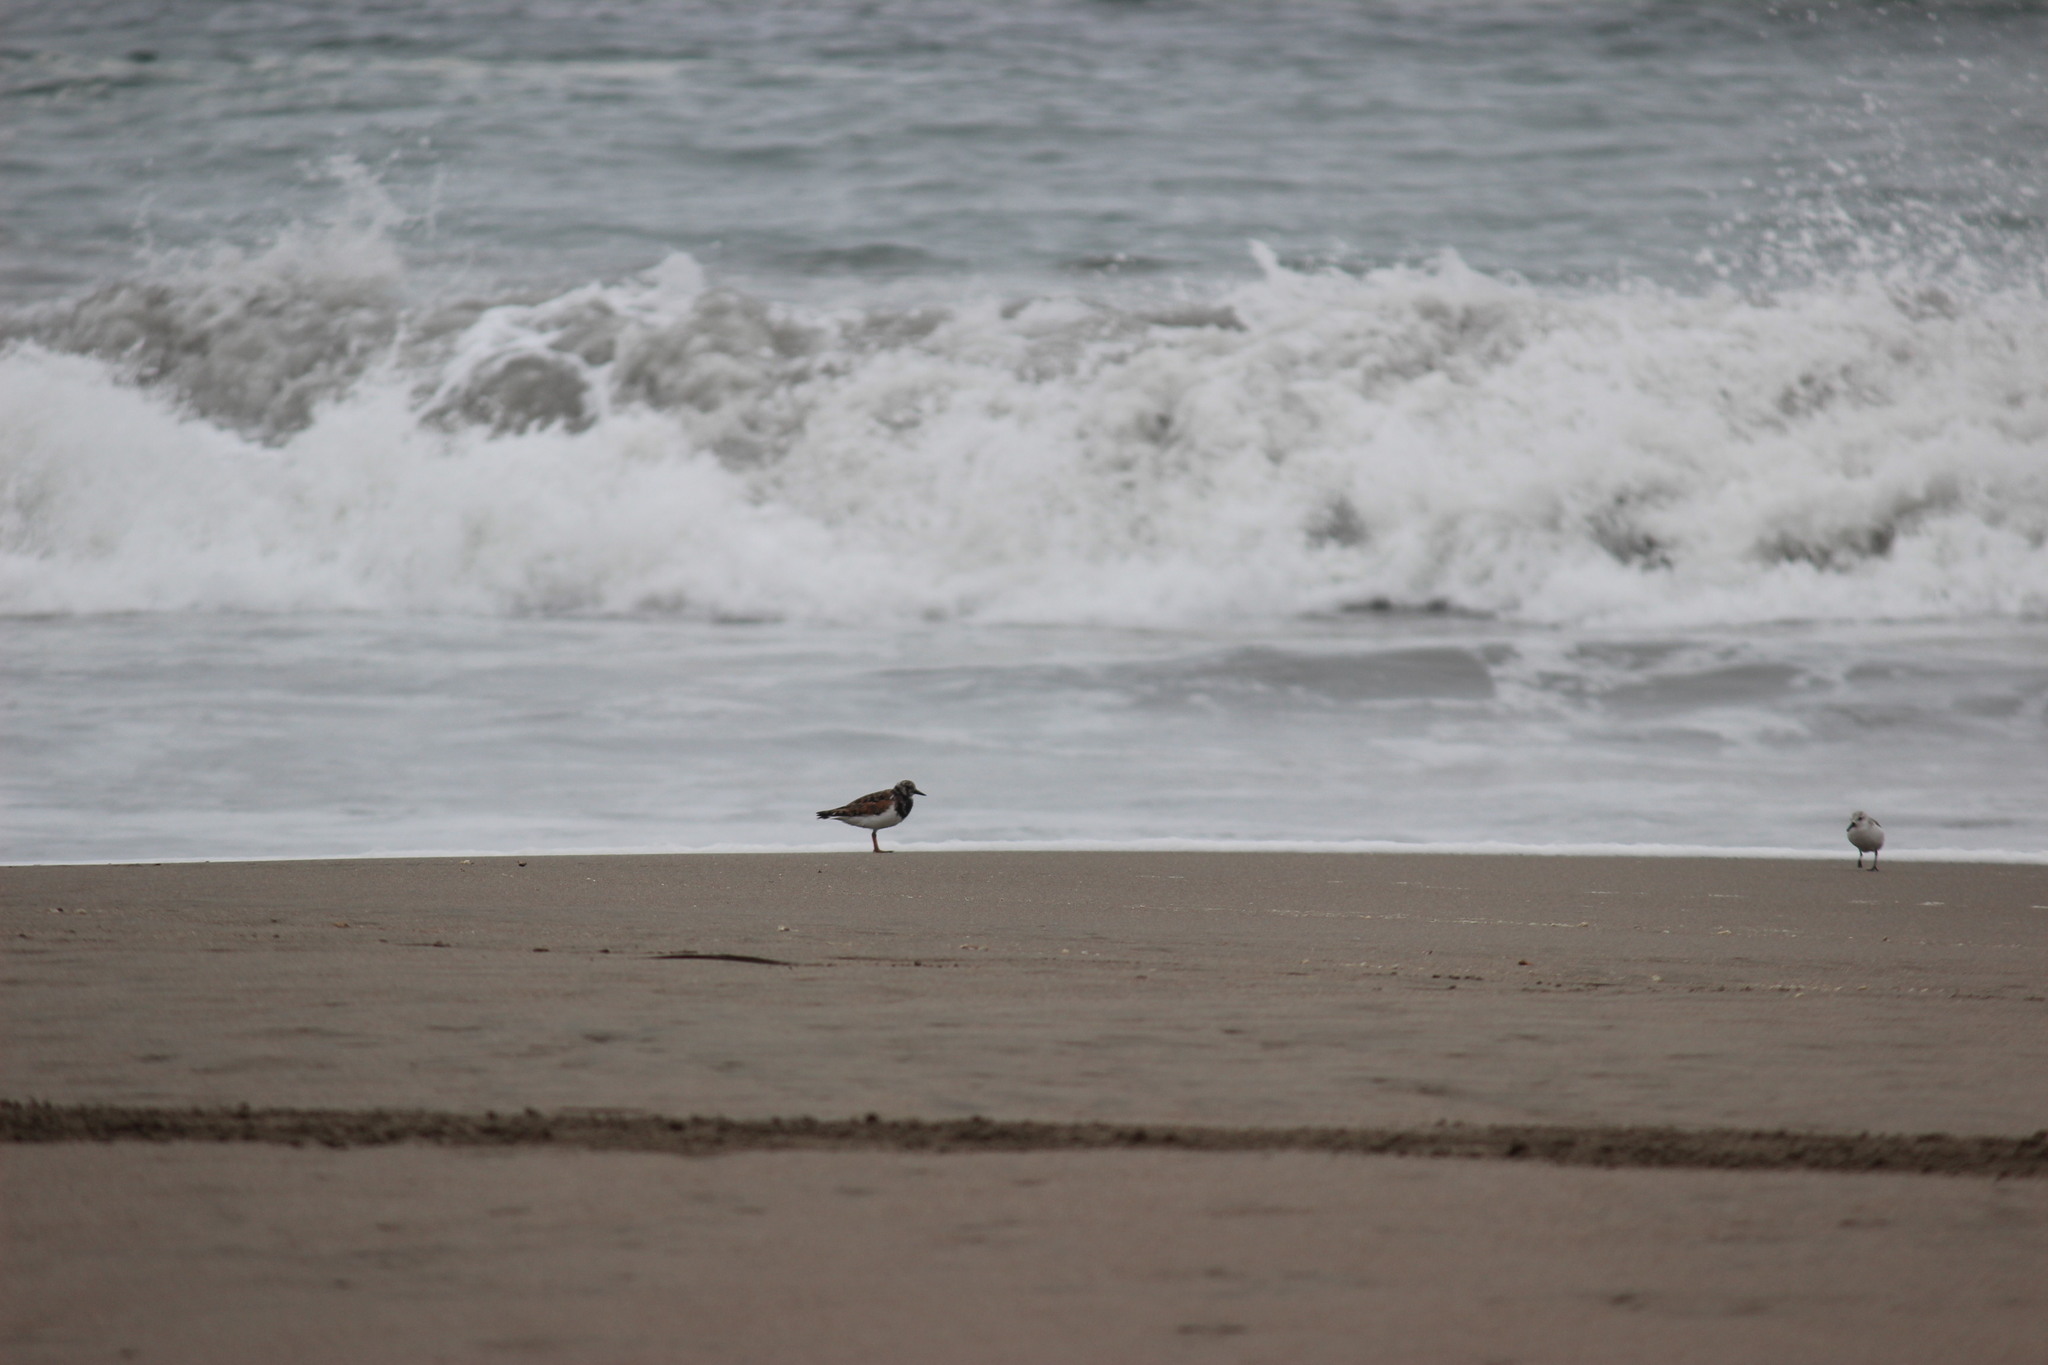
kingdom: Animalia
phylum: Chordata
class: Aves
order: Charadriiformes
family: Scolopacidae
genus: Arenaria
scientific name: Arenaria interpres
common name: Ruddy turnstone
